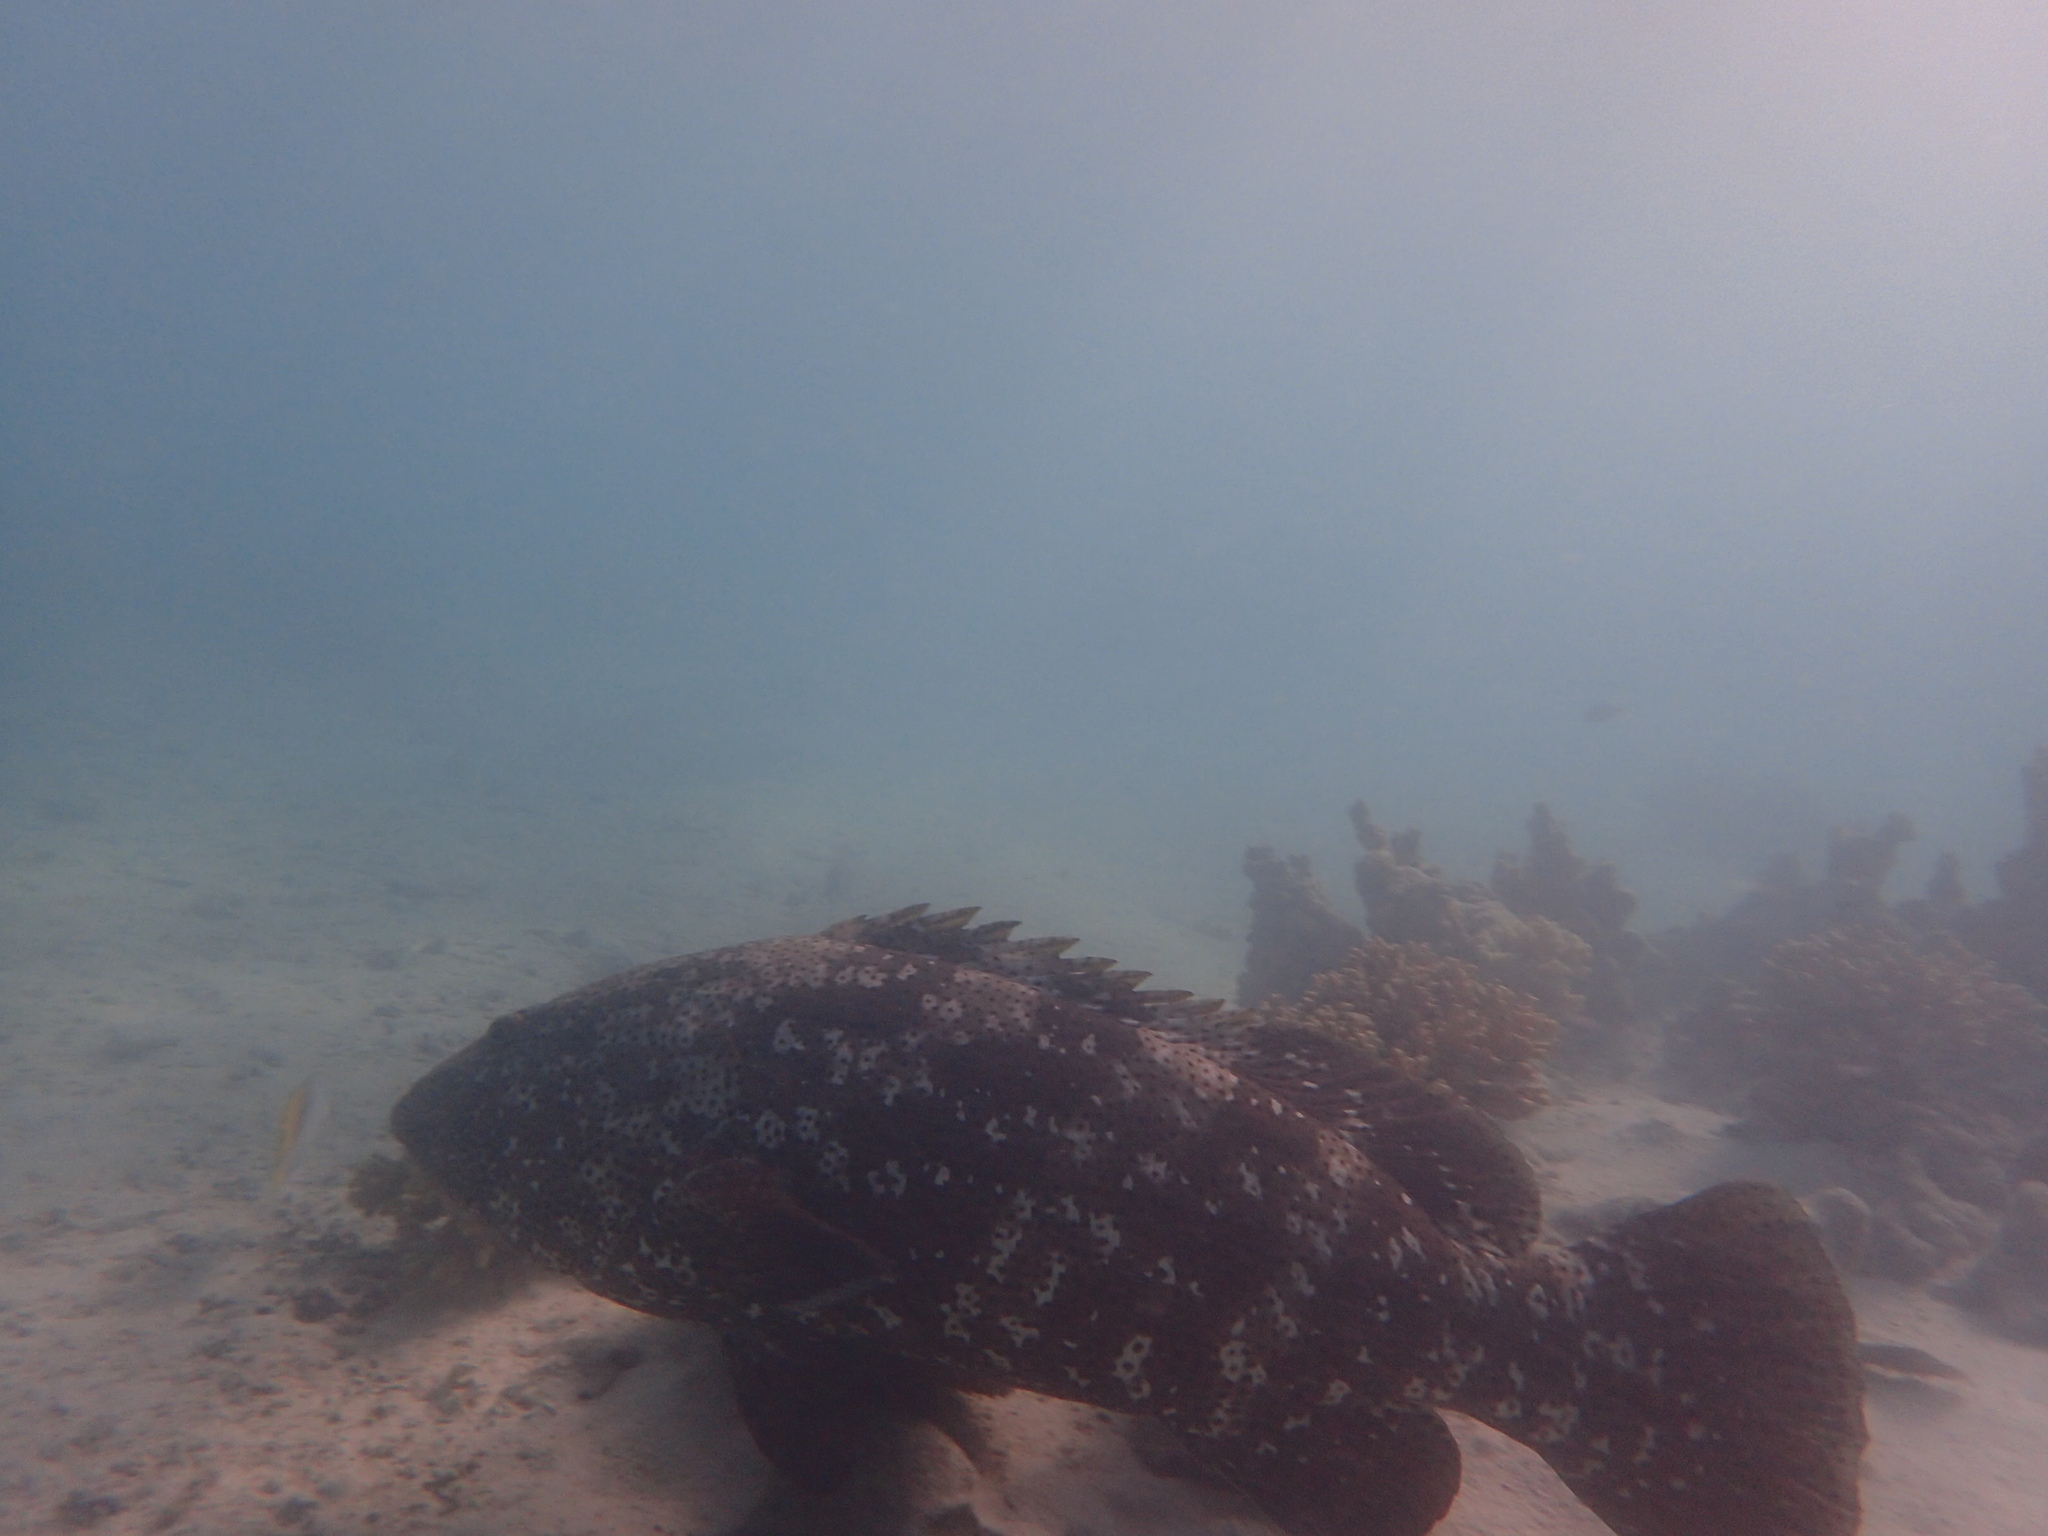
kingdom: Animalia
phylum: Chordata
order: Perciformes
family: Serranidae
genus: Epinephelus
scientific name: Epinephelus malabaricus
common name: Malabar grouper
